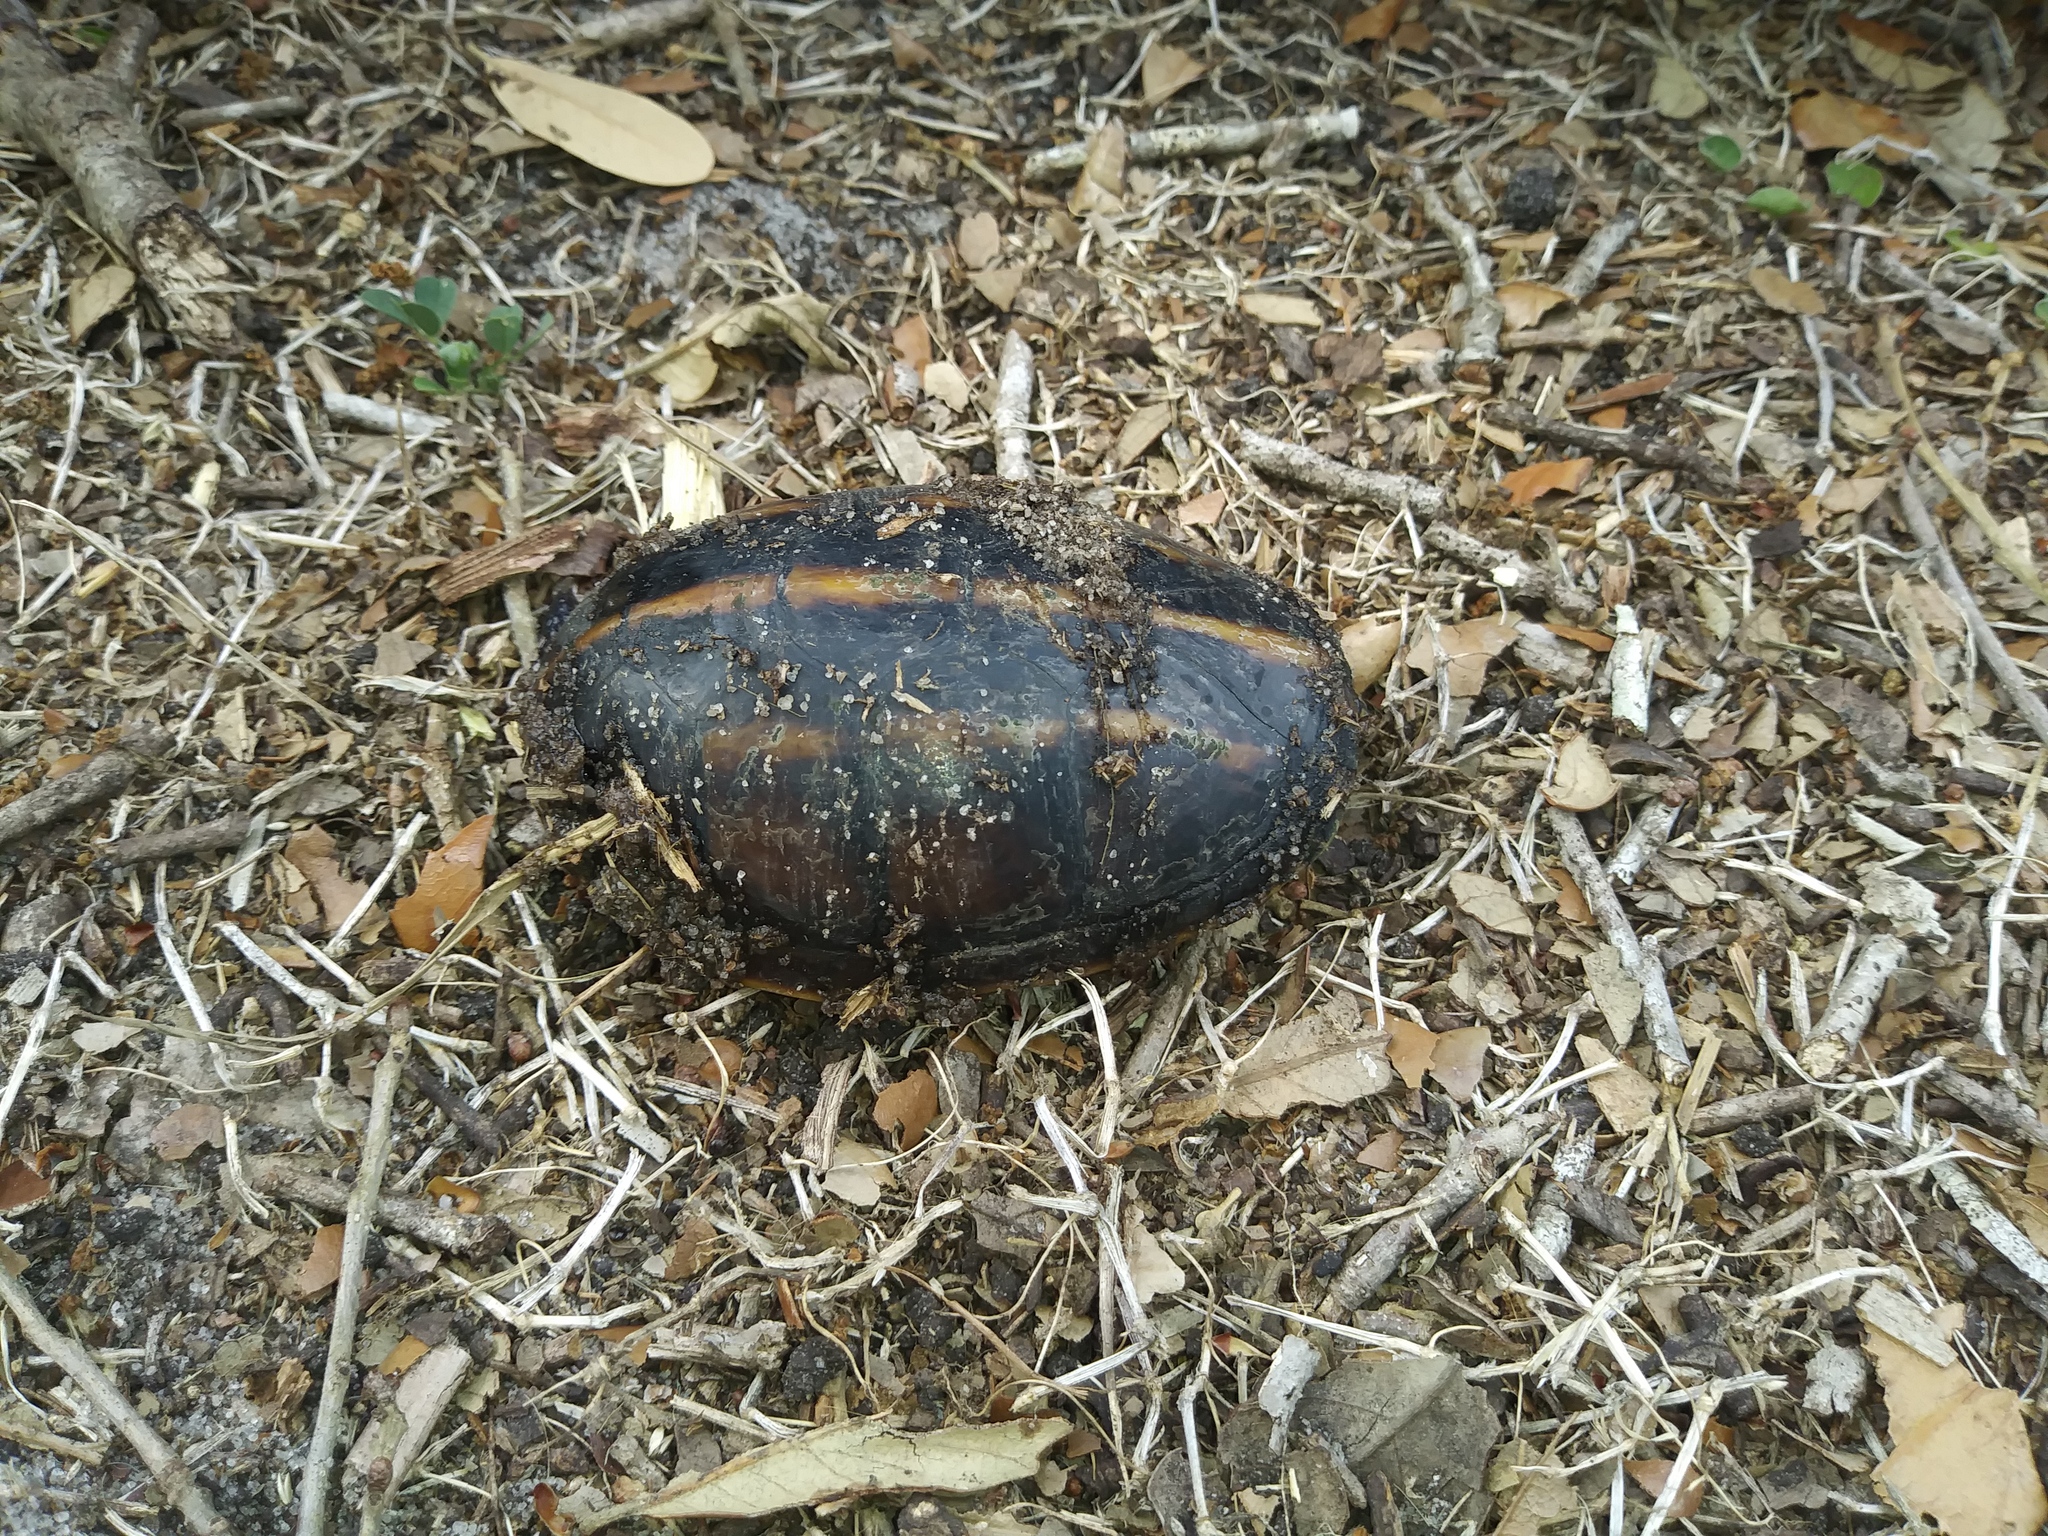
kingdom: Animalia
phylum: Chordata
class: Testudines
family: Kinosternidae
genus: Kinosternon
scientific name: Kinosternon baurii
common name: Striped mud turtle
